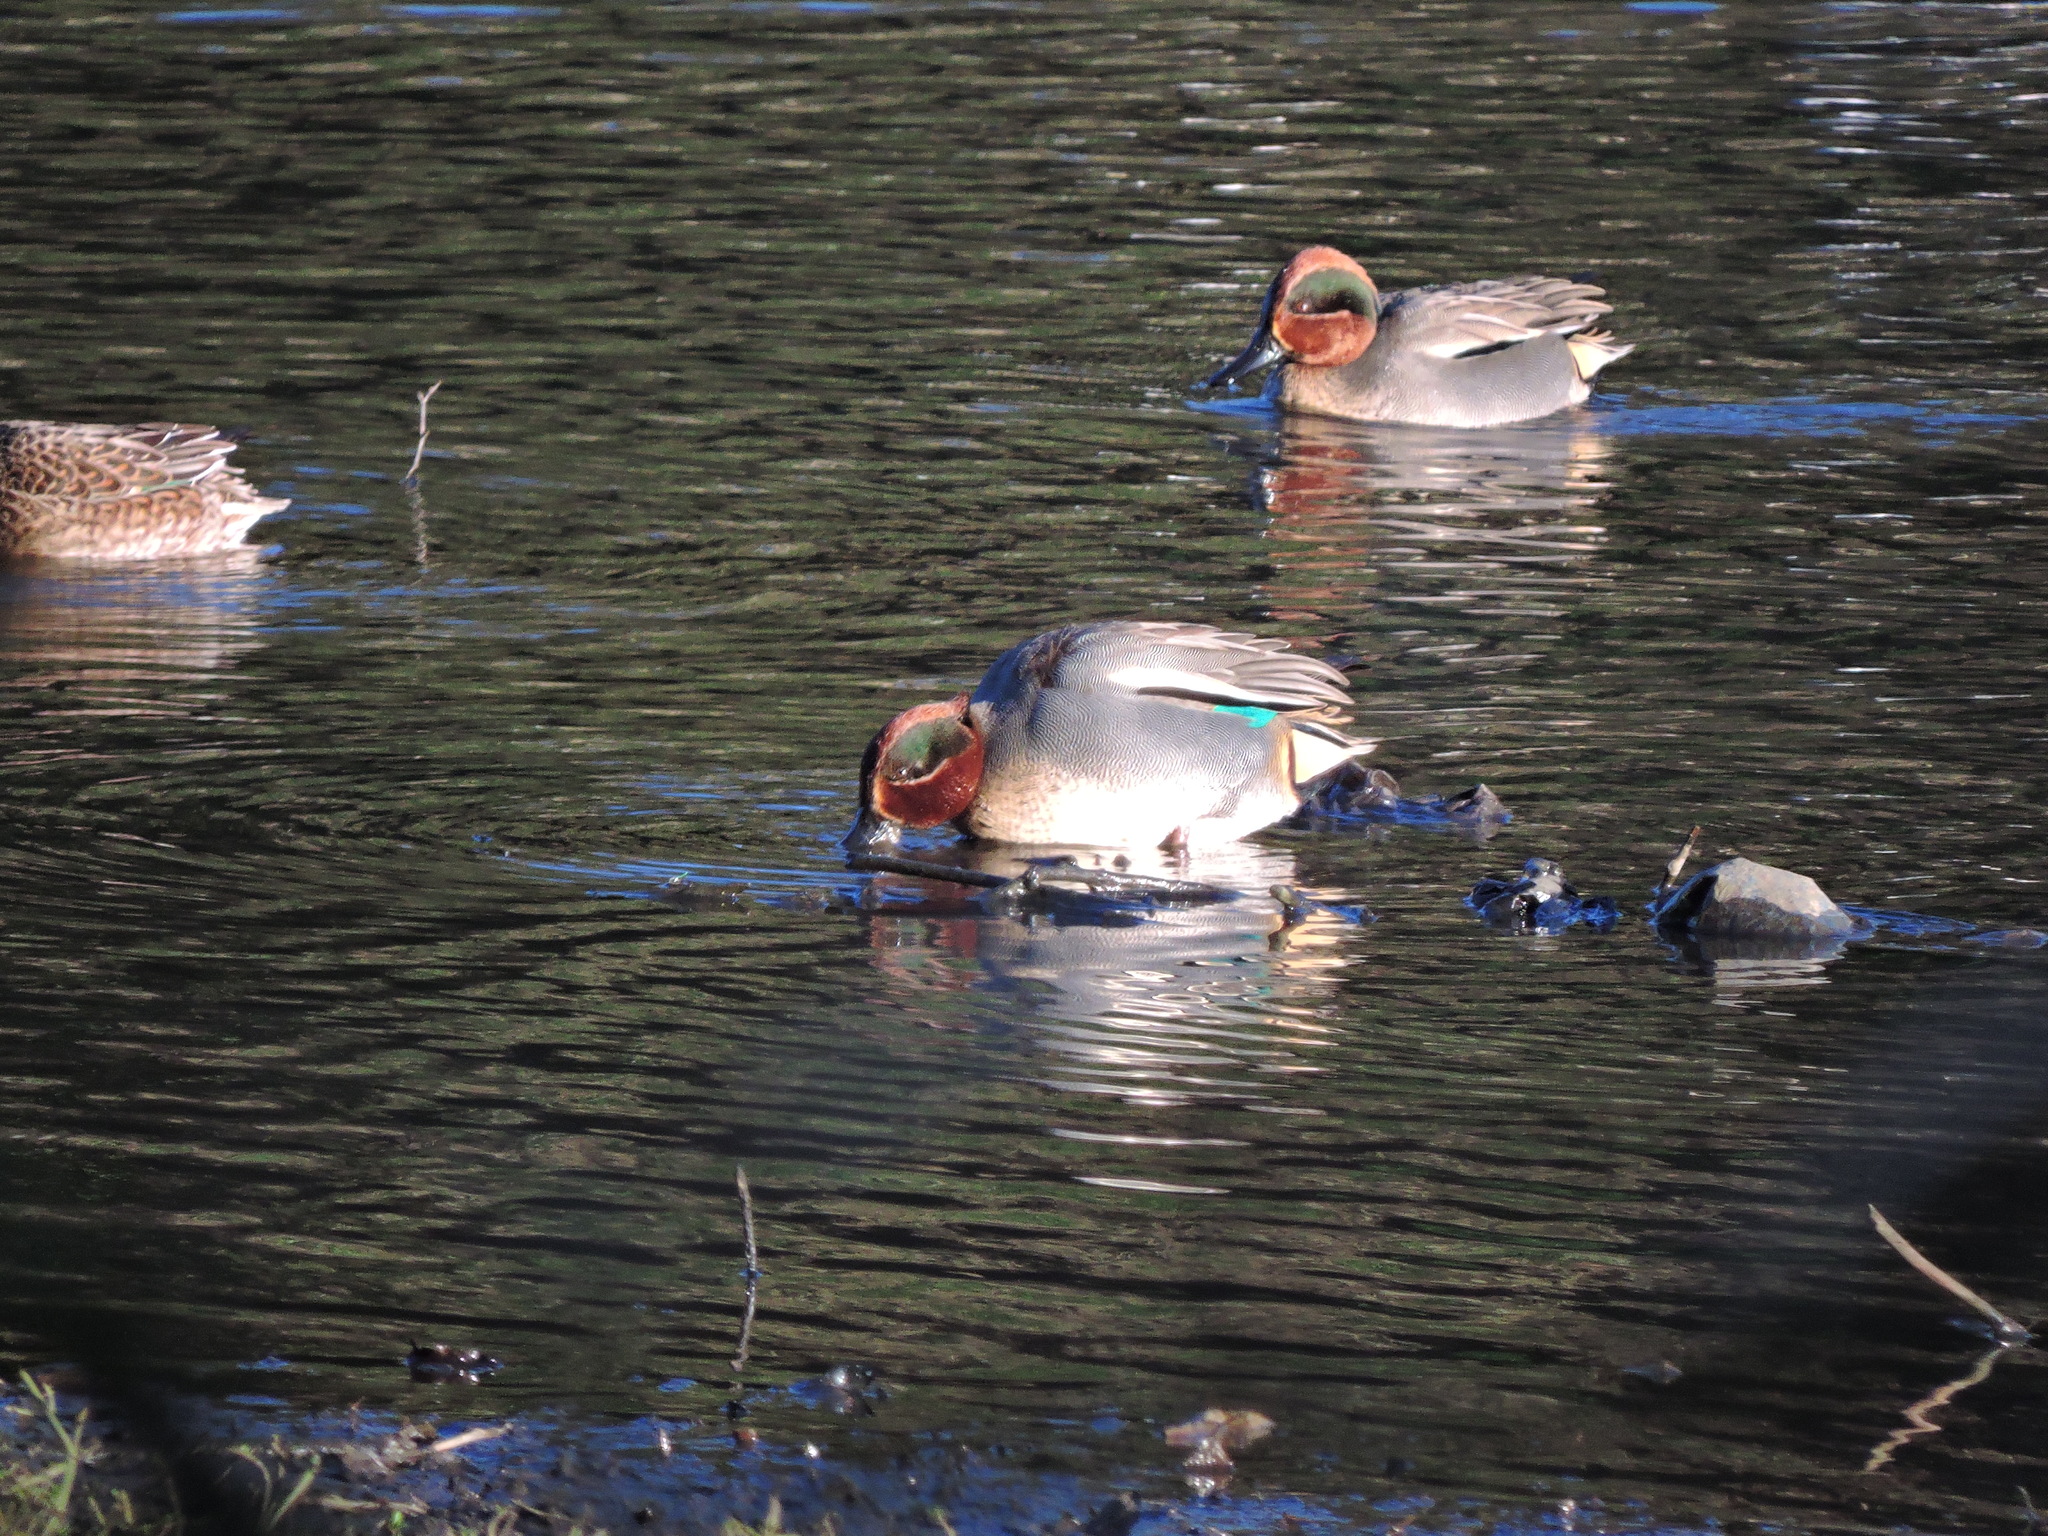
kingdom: Animalia
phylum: Chordata
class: Aves
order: Anseriformes
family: Anatidae
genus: Anas
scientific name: Anas crecca
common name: Eurasian teal
